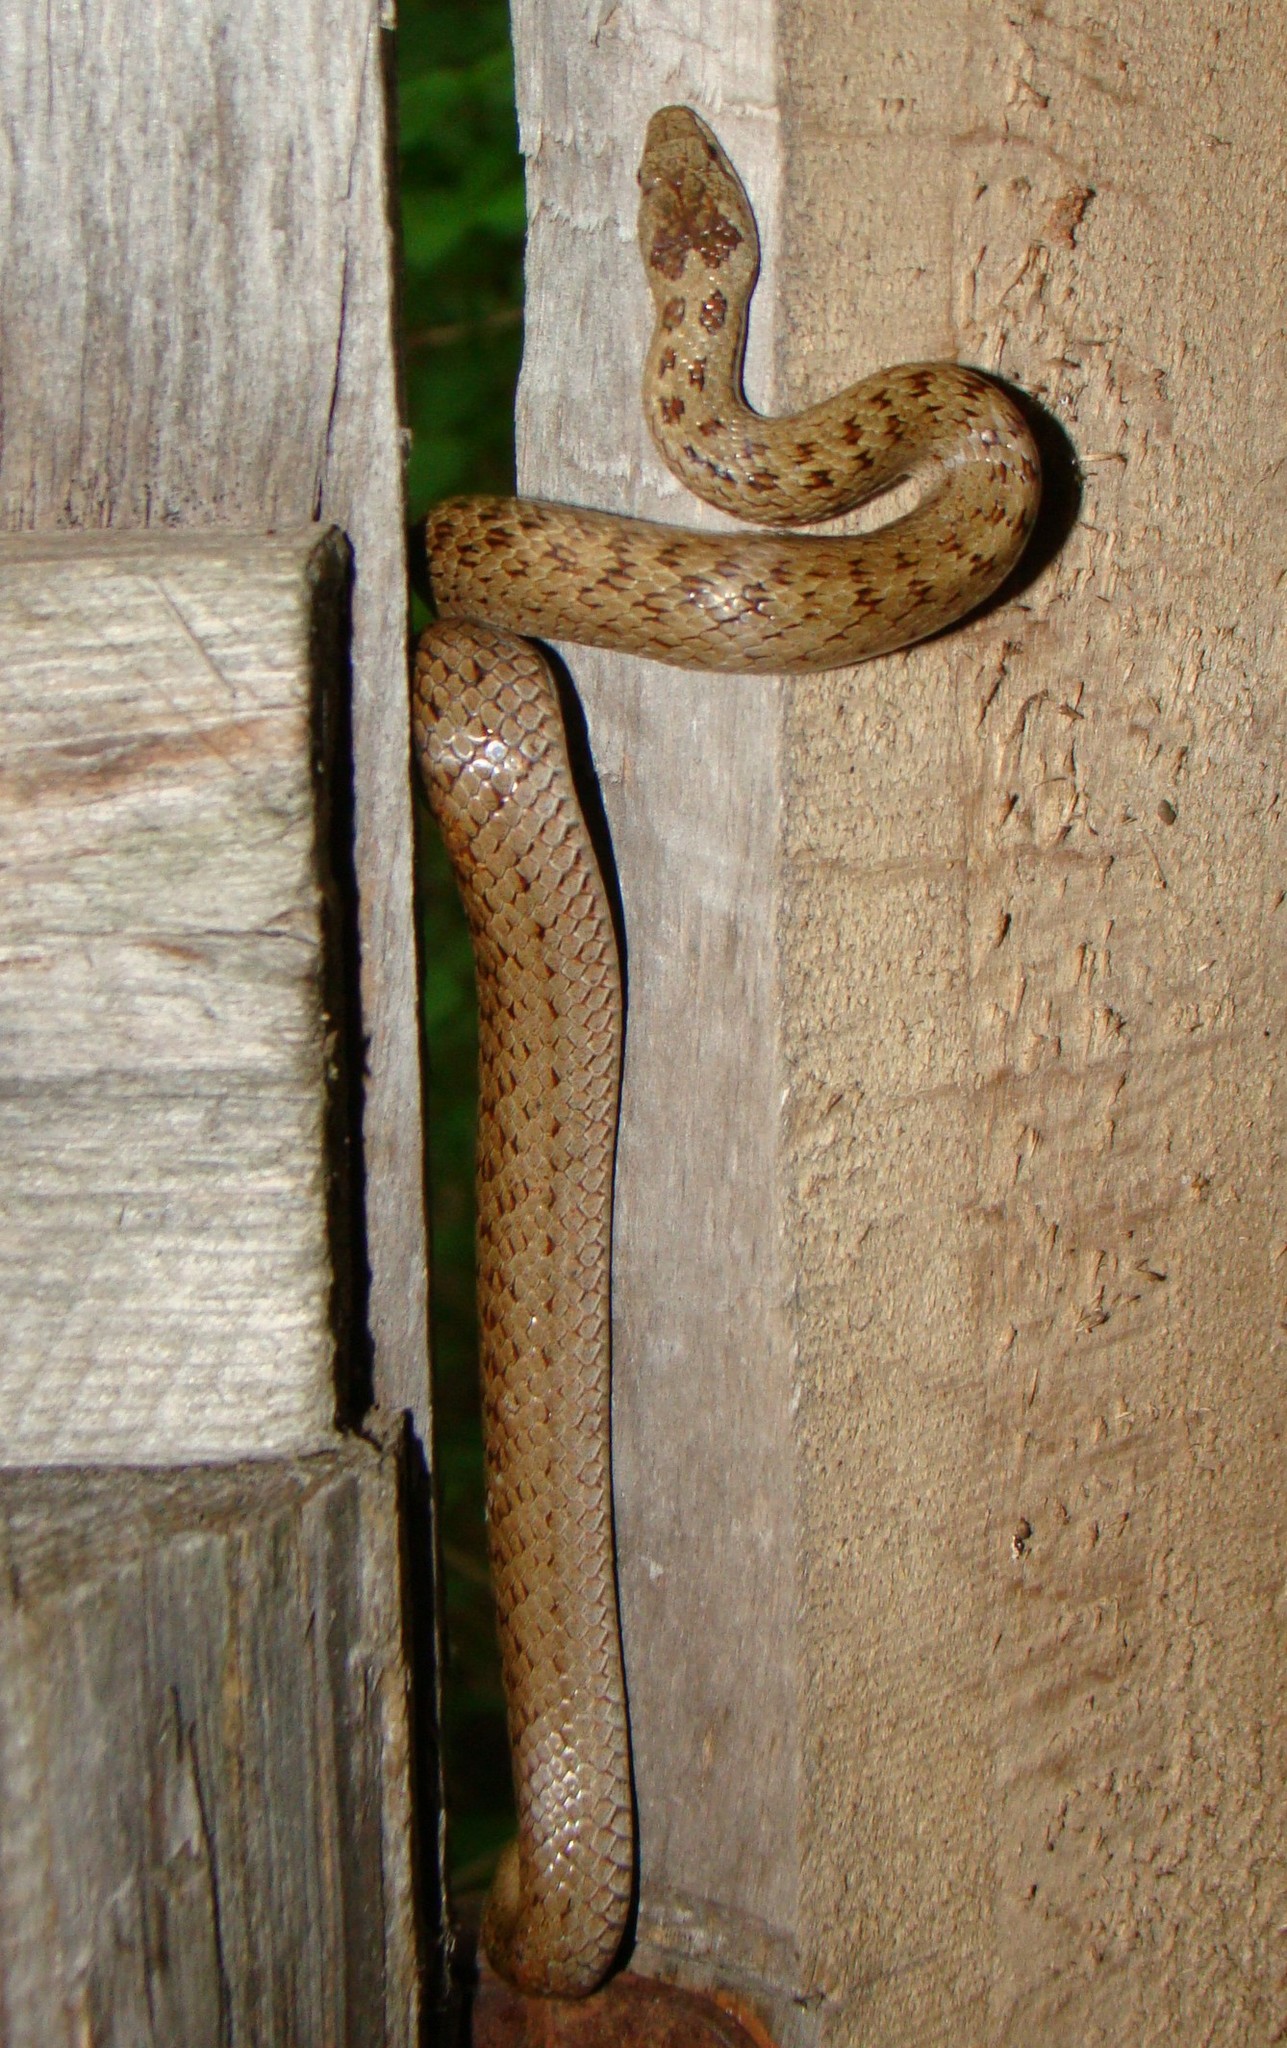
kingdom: Animalia
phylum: Chordata
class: Squamata
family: Colubridae
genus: Coronella
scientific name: Coronella austriaca
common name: Smooth snake
